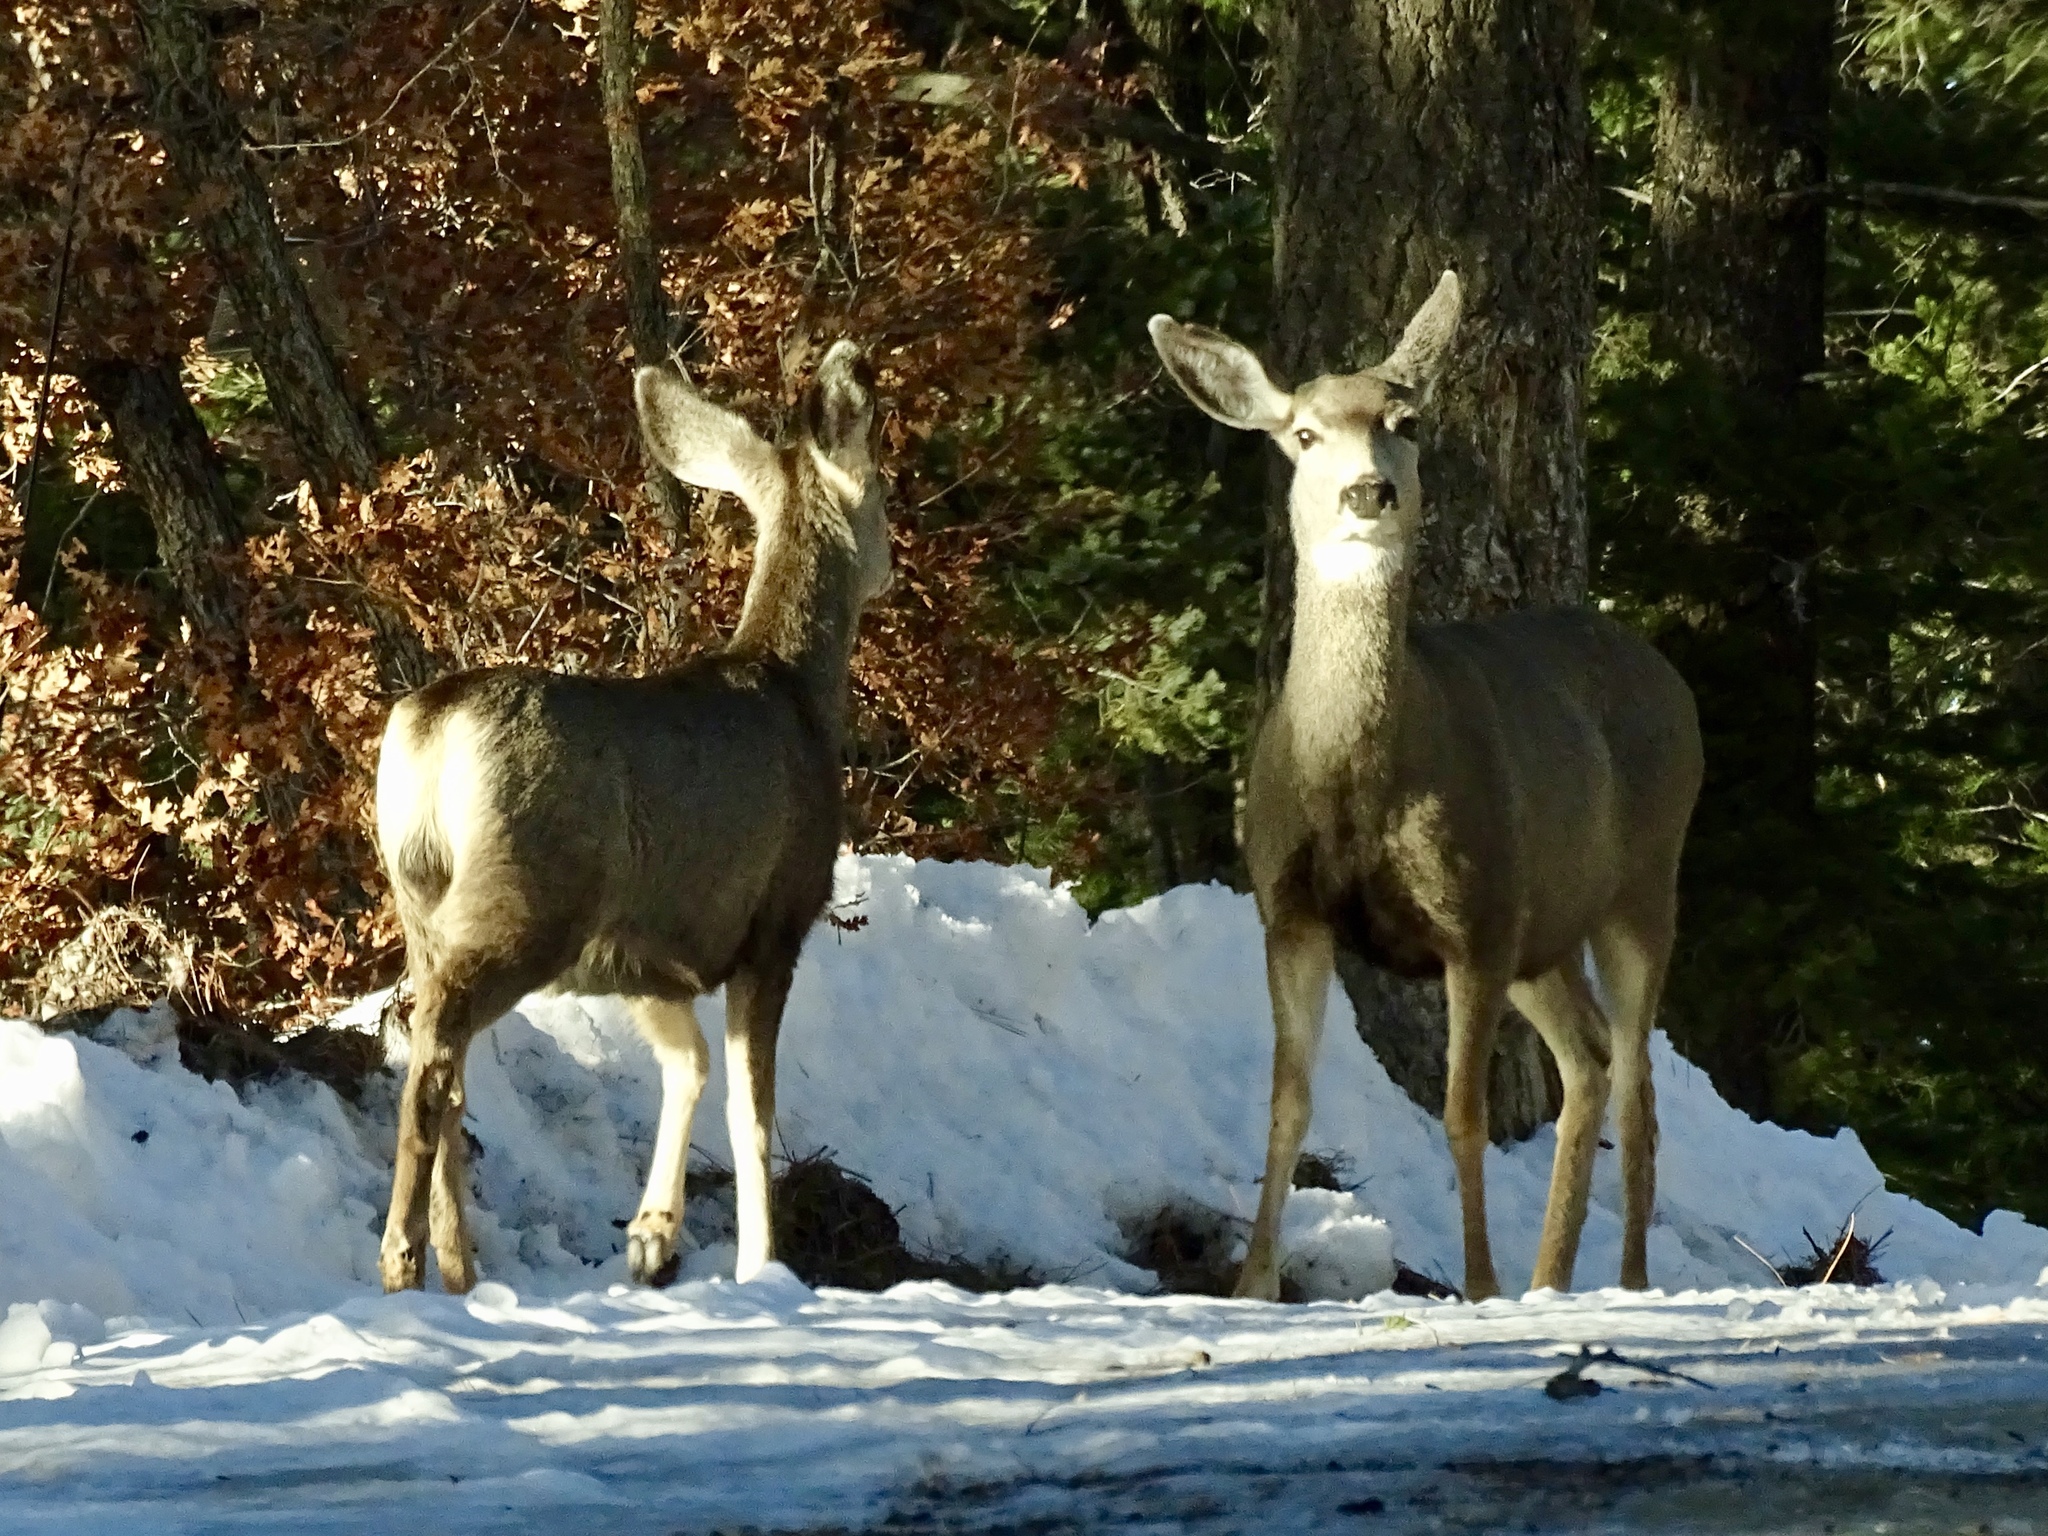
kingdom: Animalia
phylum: Chordata
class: Mammalia
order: Artiodactyla
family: Cervidae
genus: Odocoileus
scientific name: Odocoileus hemionus
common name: Mule deer
